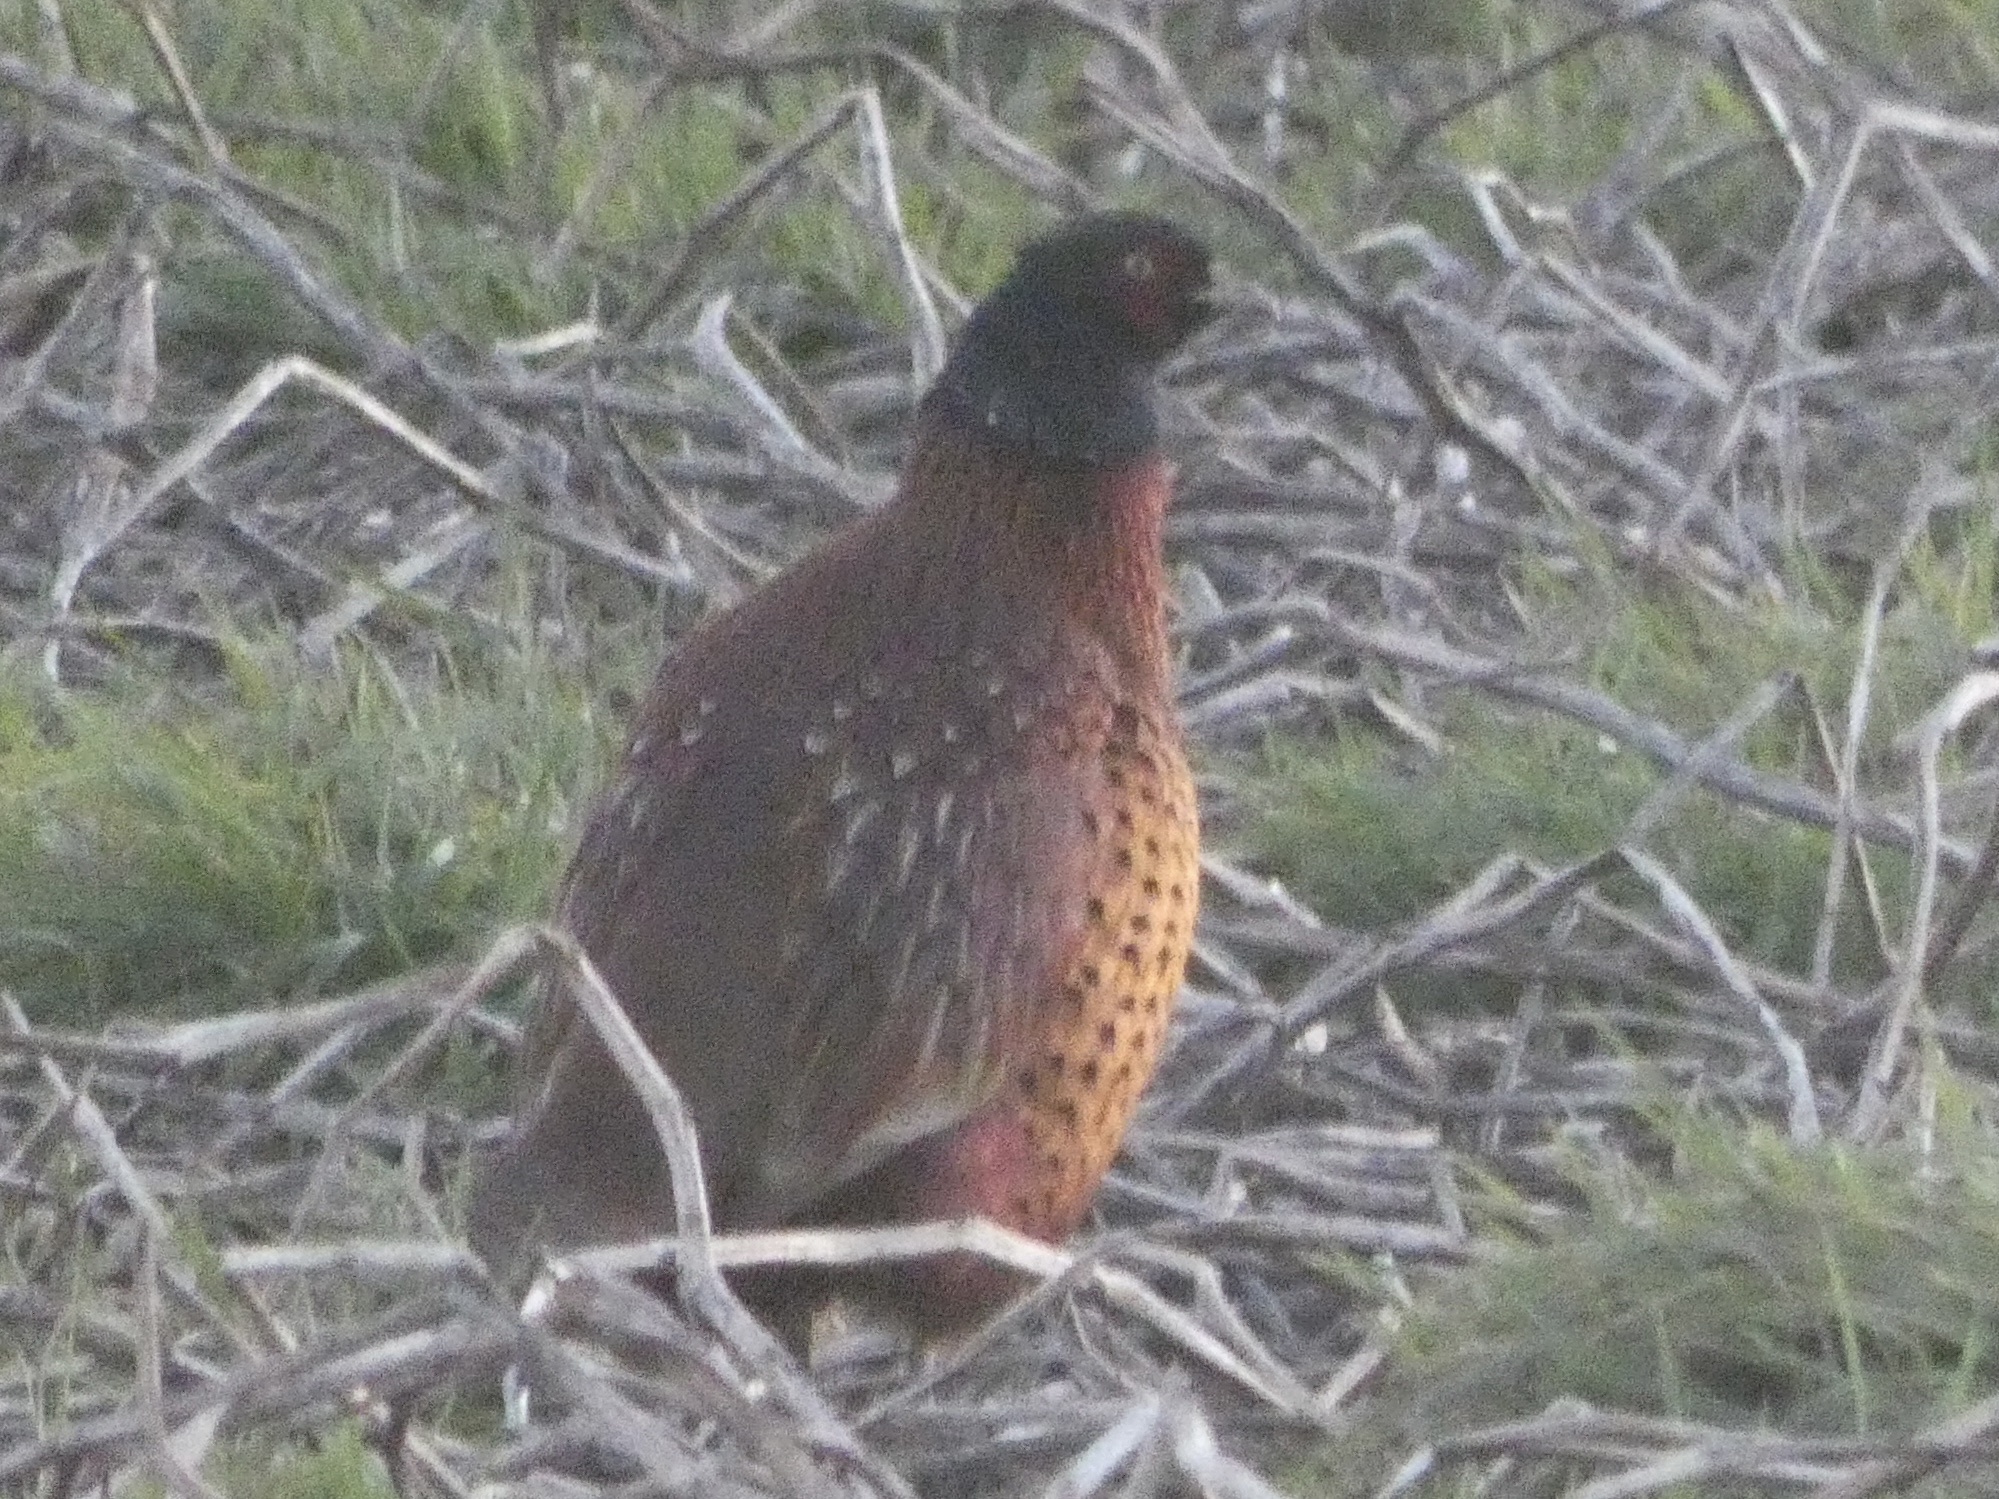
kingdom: Animalia
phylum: Chordata
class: Aves
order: Galliformes
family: Phasianidae
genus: Phasianus
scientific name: Phasianus colchicus
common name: Common pheasant
